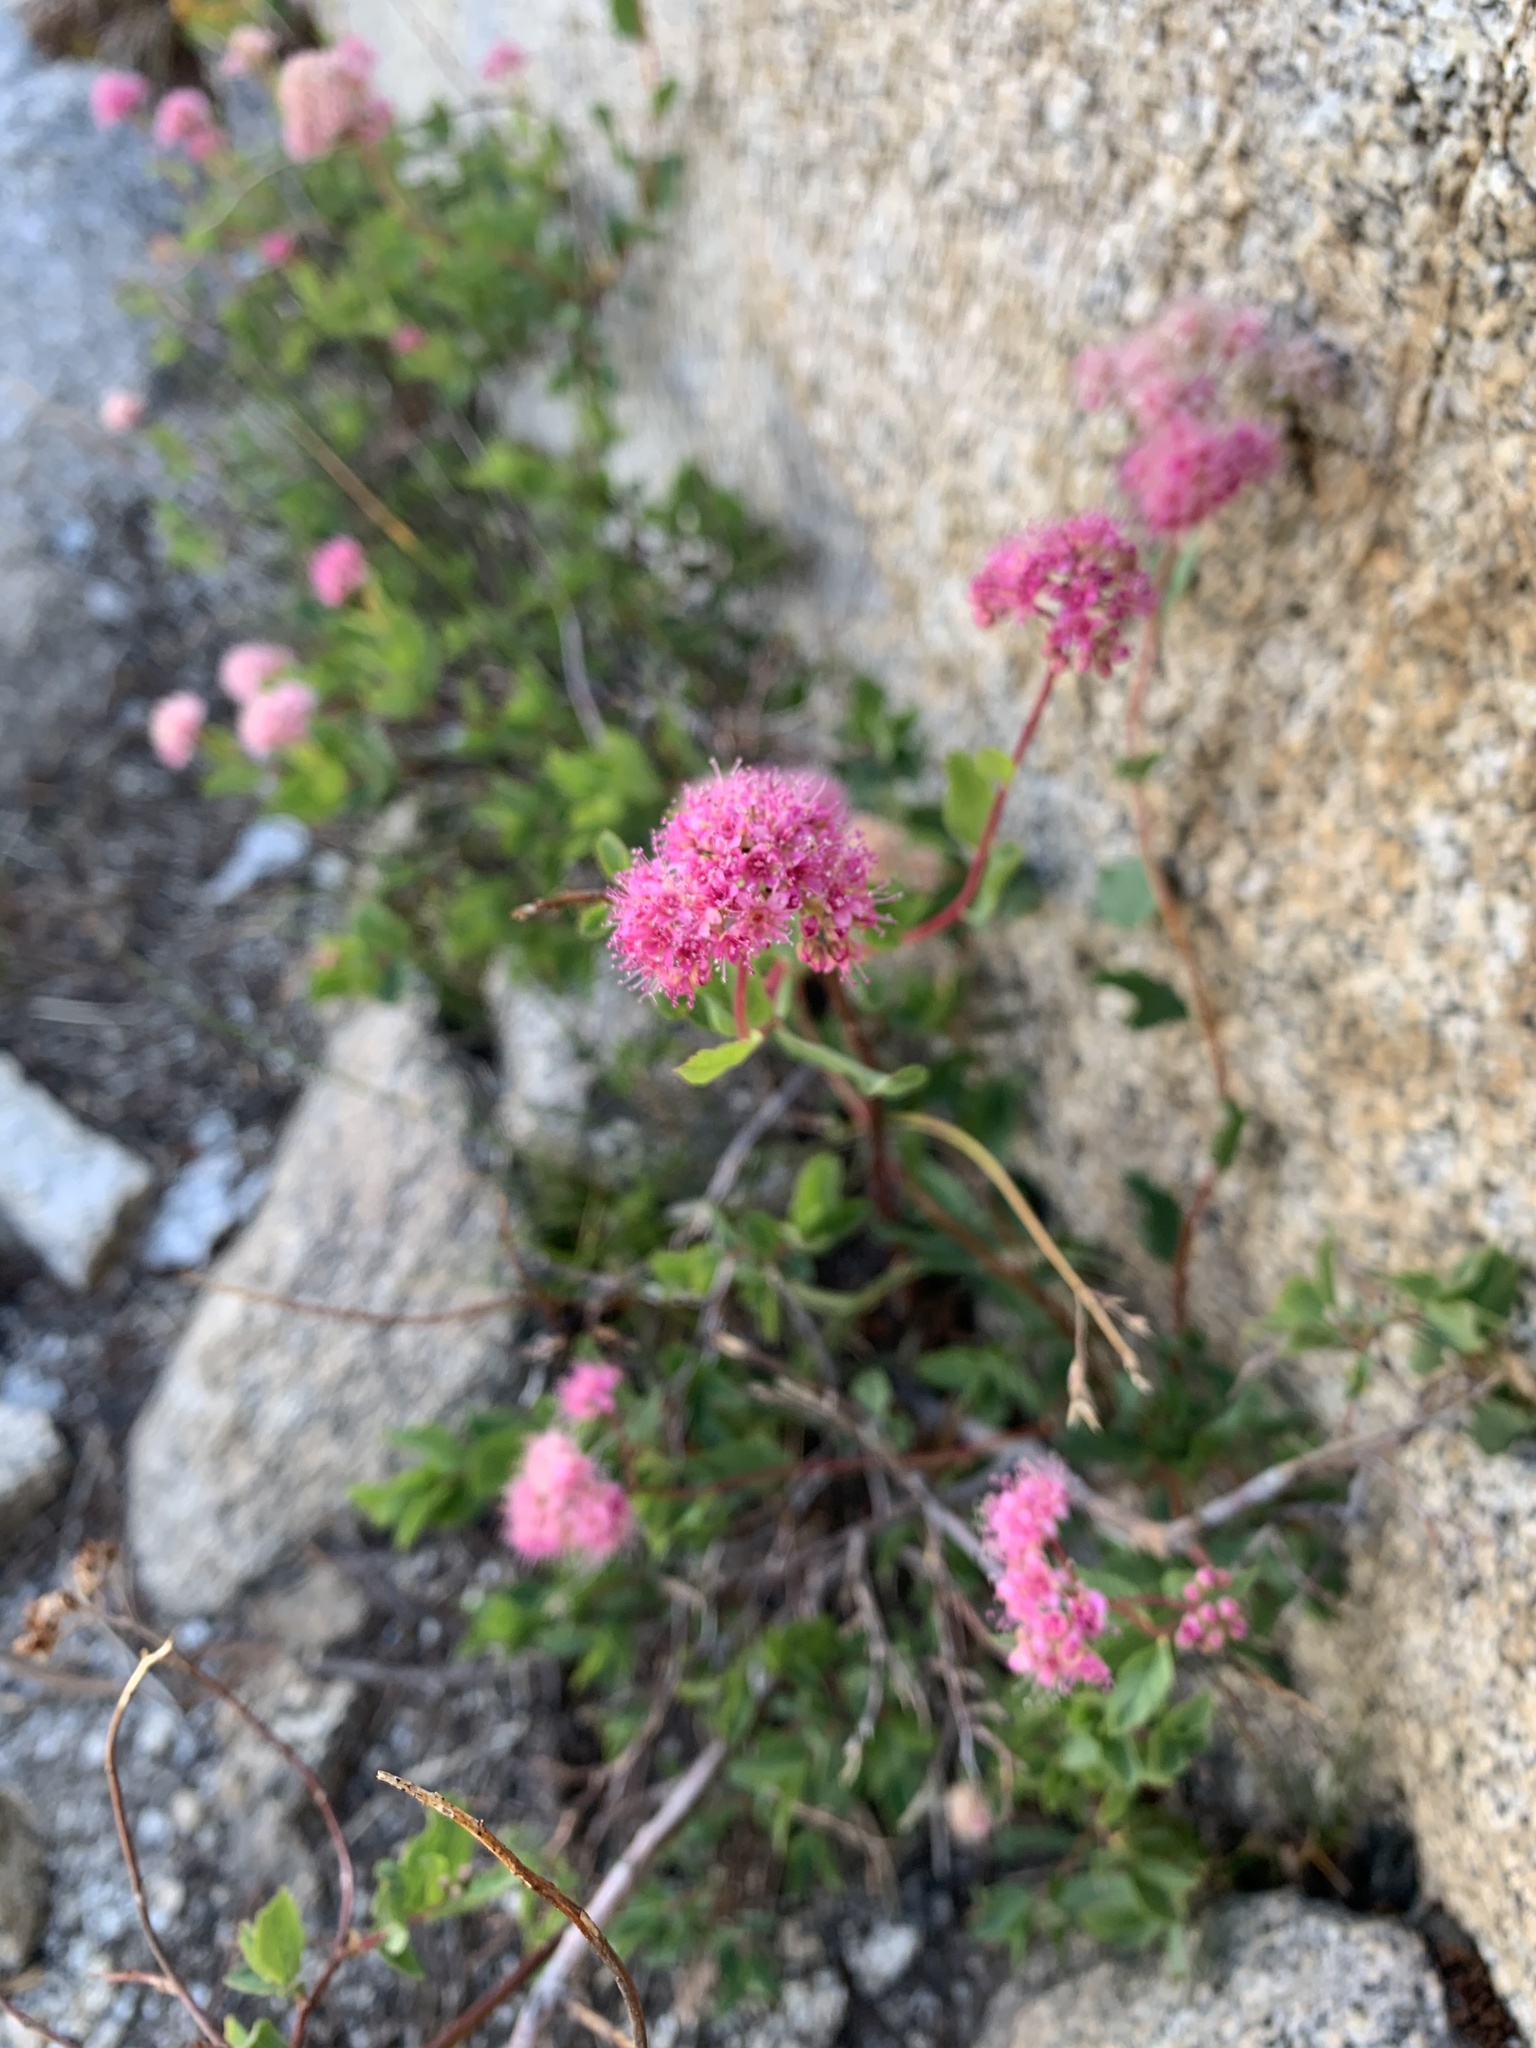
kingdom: Plantae
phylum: Tracheophyta
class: Magnoliopsida
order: Rosales
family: Rosaceae
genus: Spiraea
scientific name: Spiraea splendens
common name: Subalpine meadowsweet
